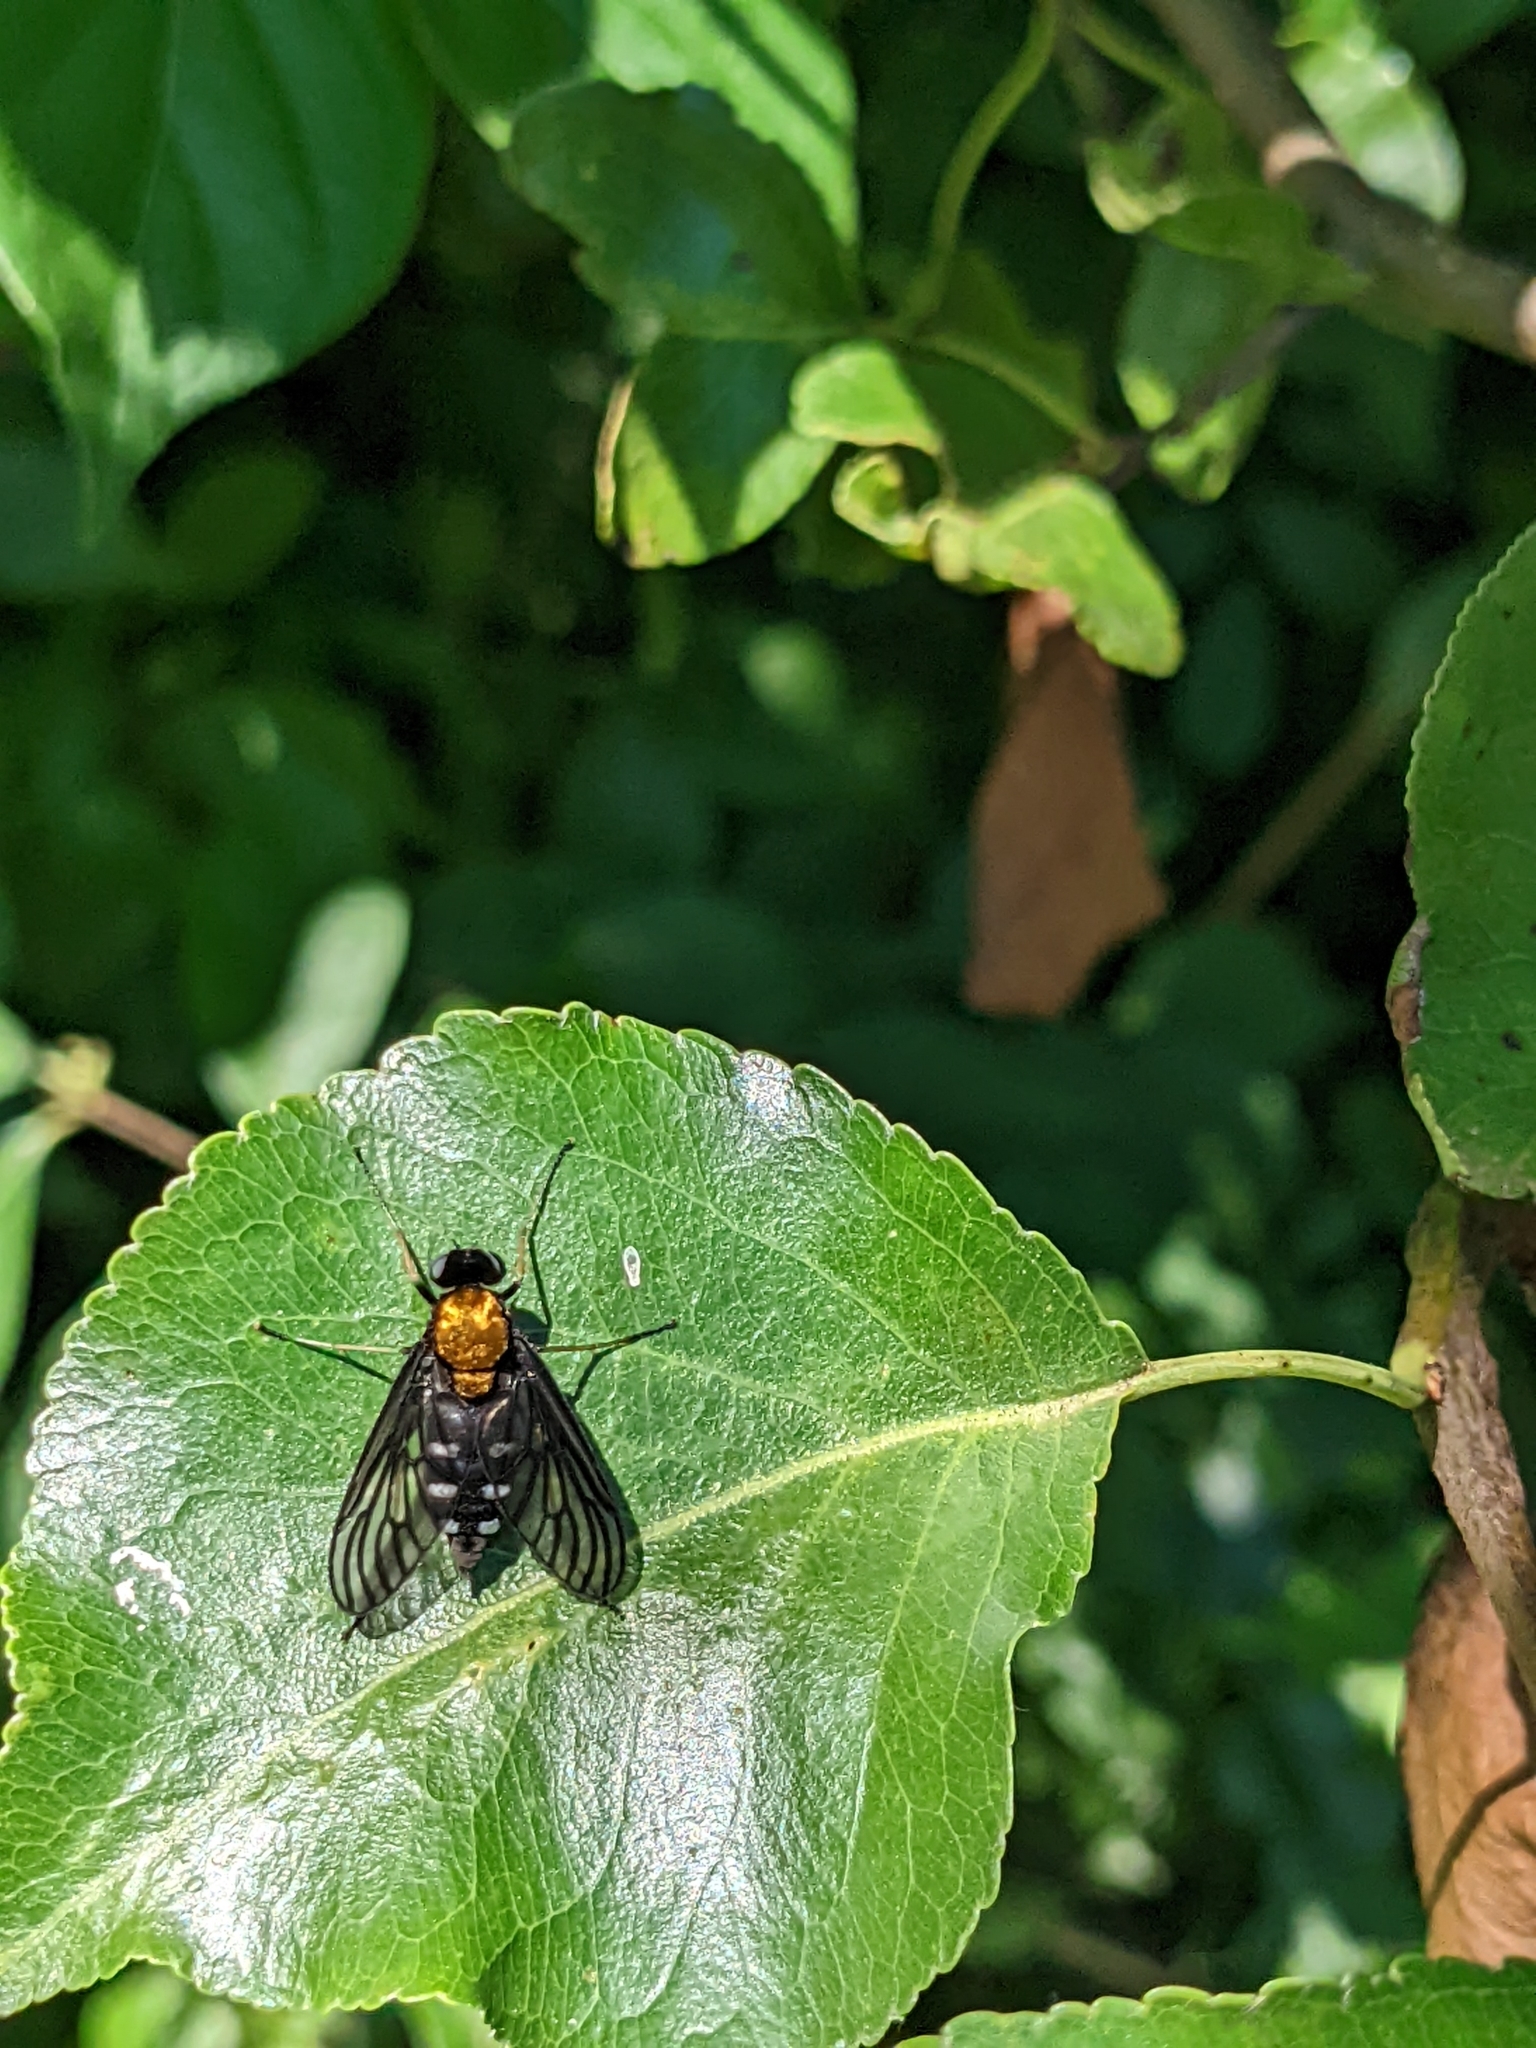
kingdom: Animalia
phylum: Arthropoda
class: Insecta
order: Diptera
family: Rhagionidae
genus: Chrysopilus
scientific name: Chrysopilus thoracicus
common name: Golden-backed snipe fly
